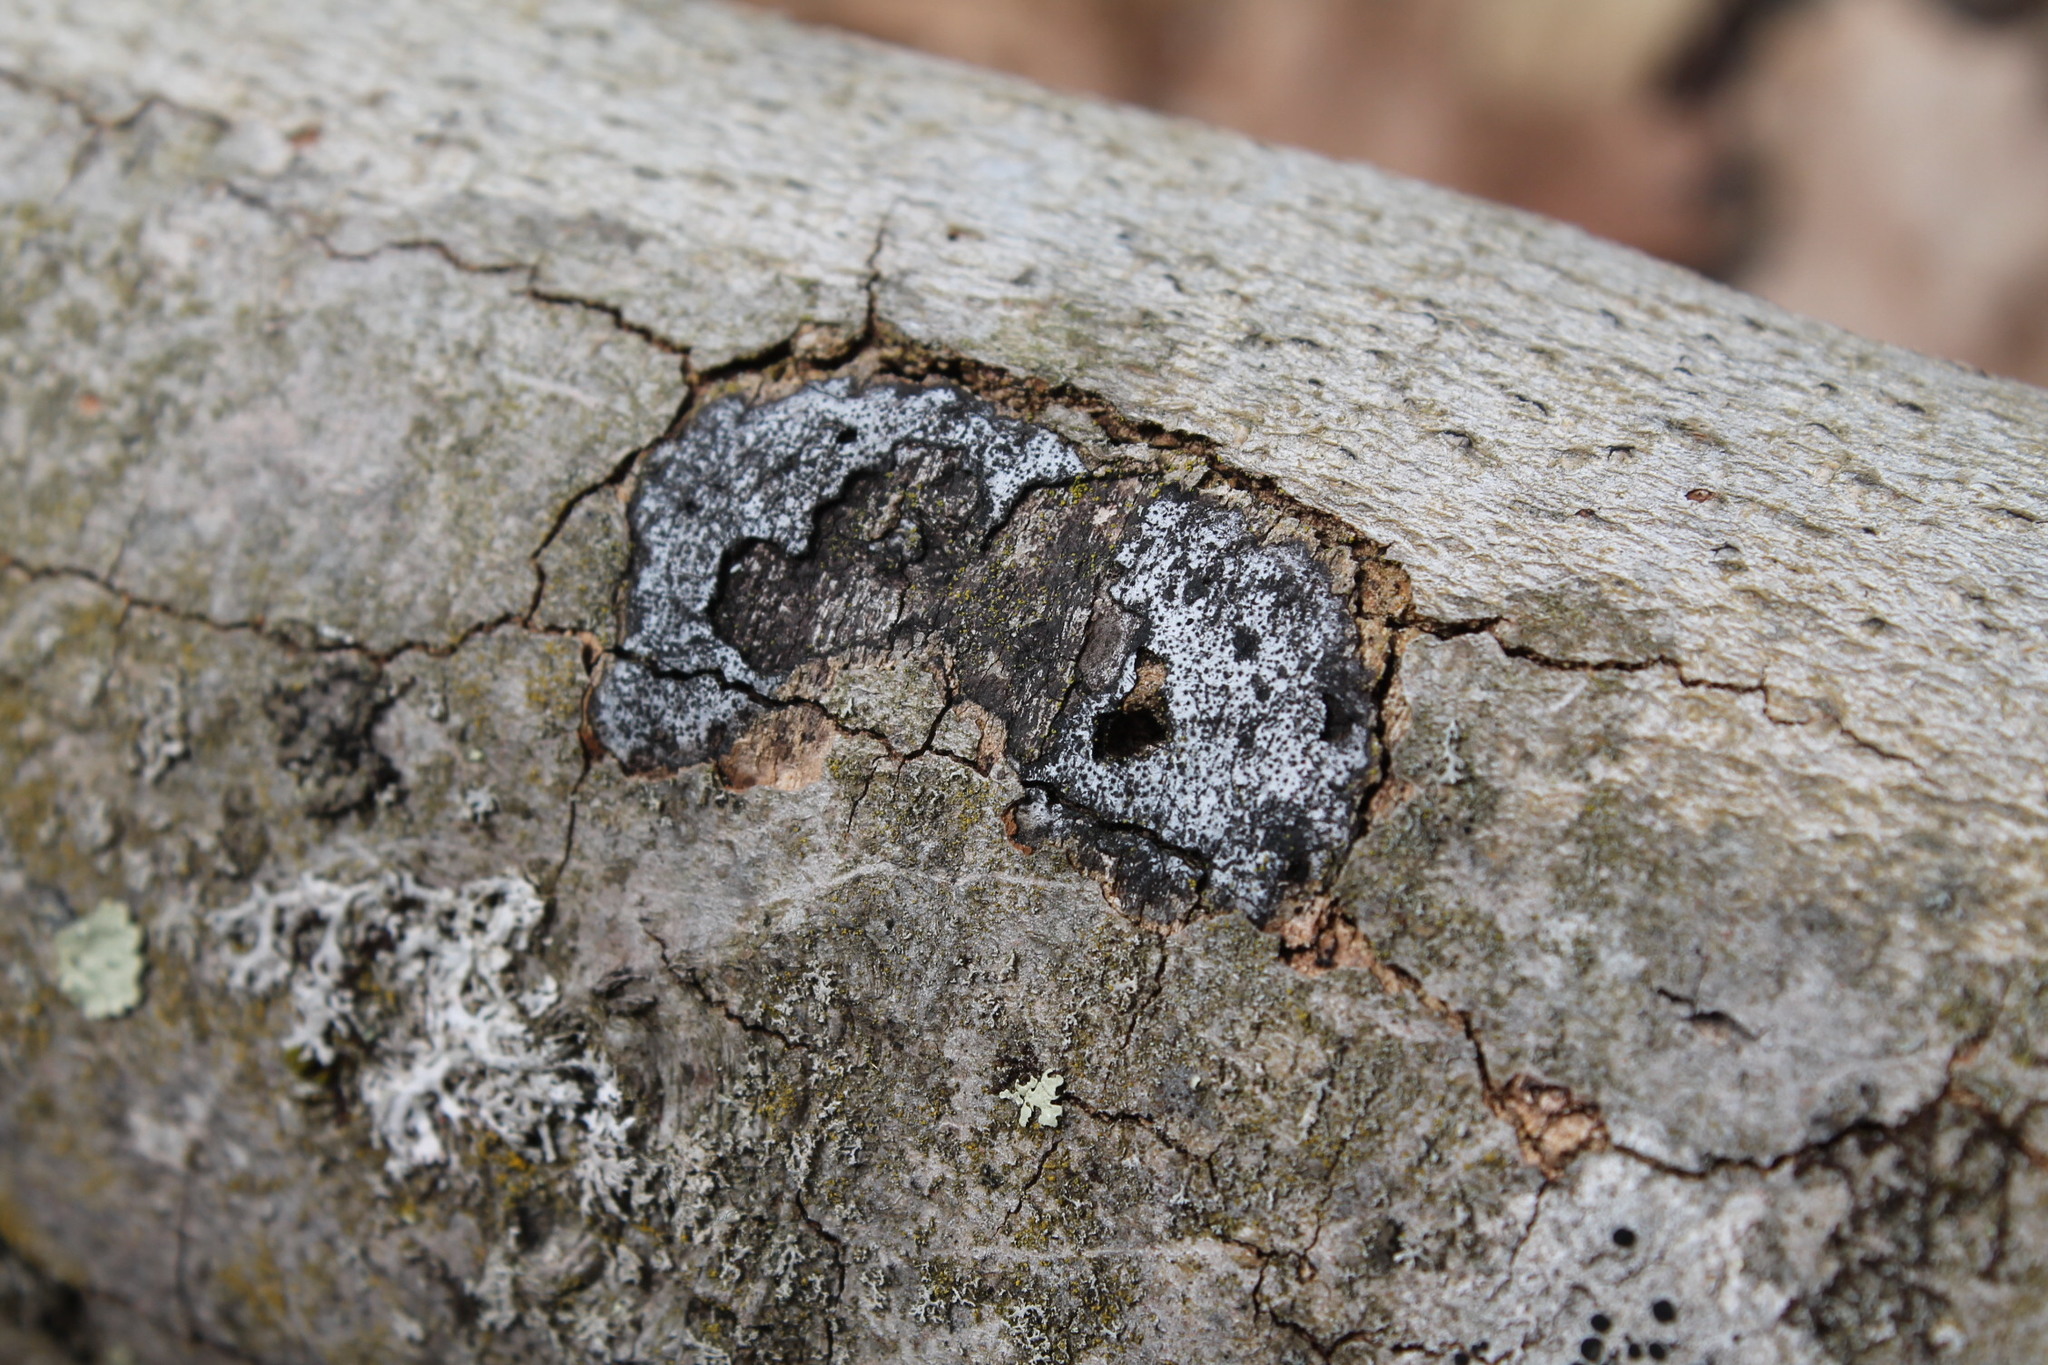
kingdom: Fungi
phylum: Ascomycota
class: Sordariomycetes
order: Xylariales
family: Graphostromataceae
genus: Biscogniauxia
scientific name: Biscogniauxia atropunctata
